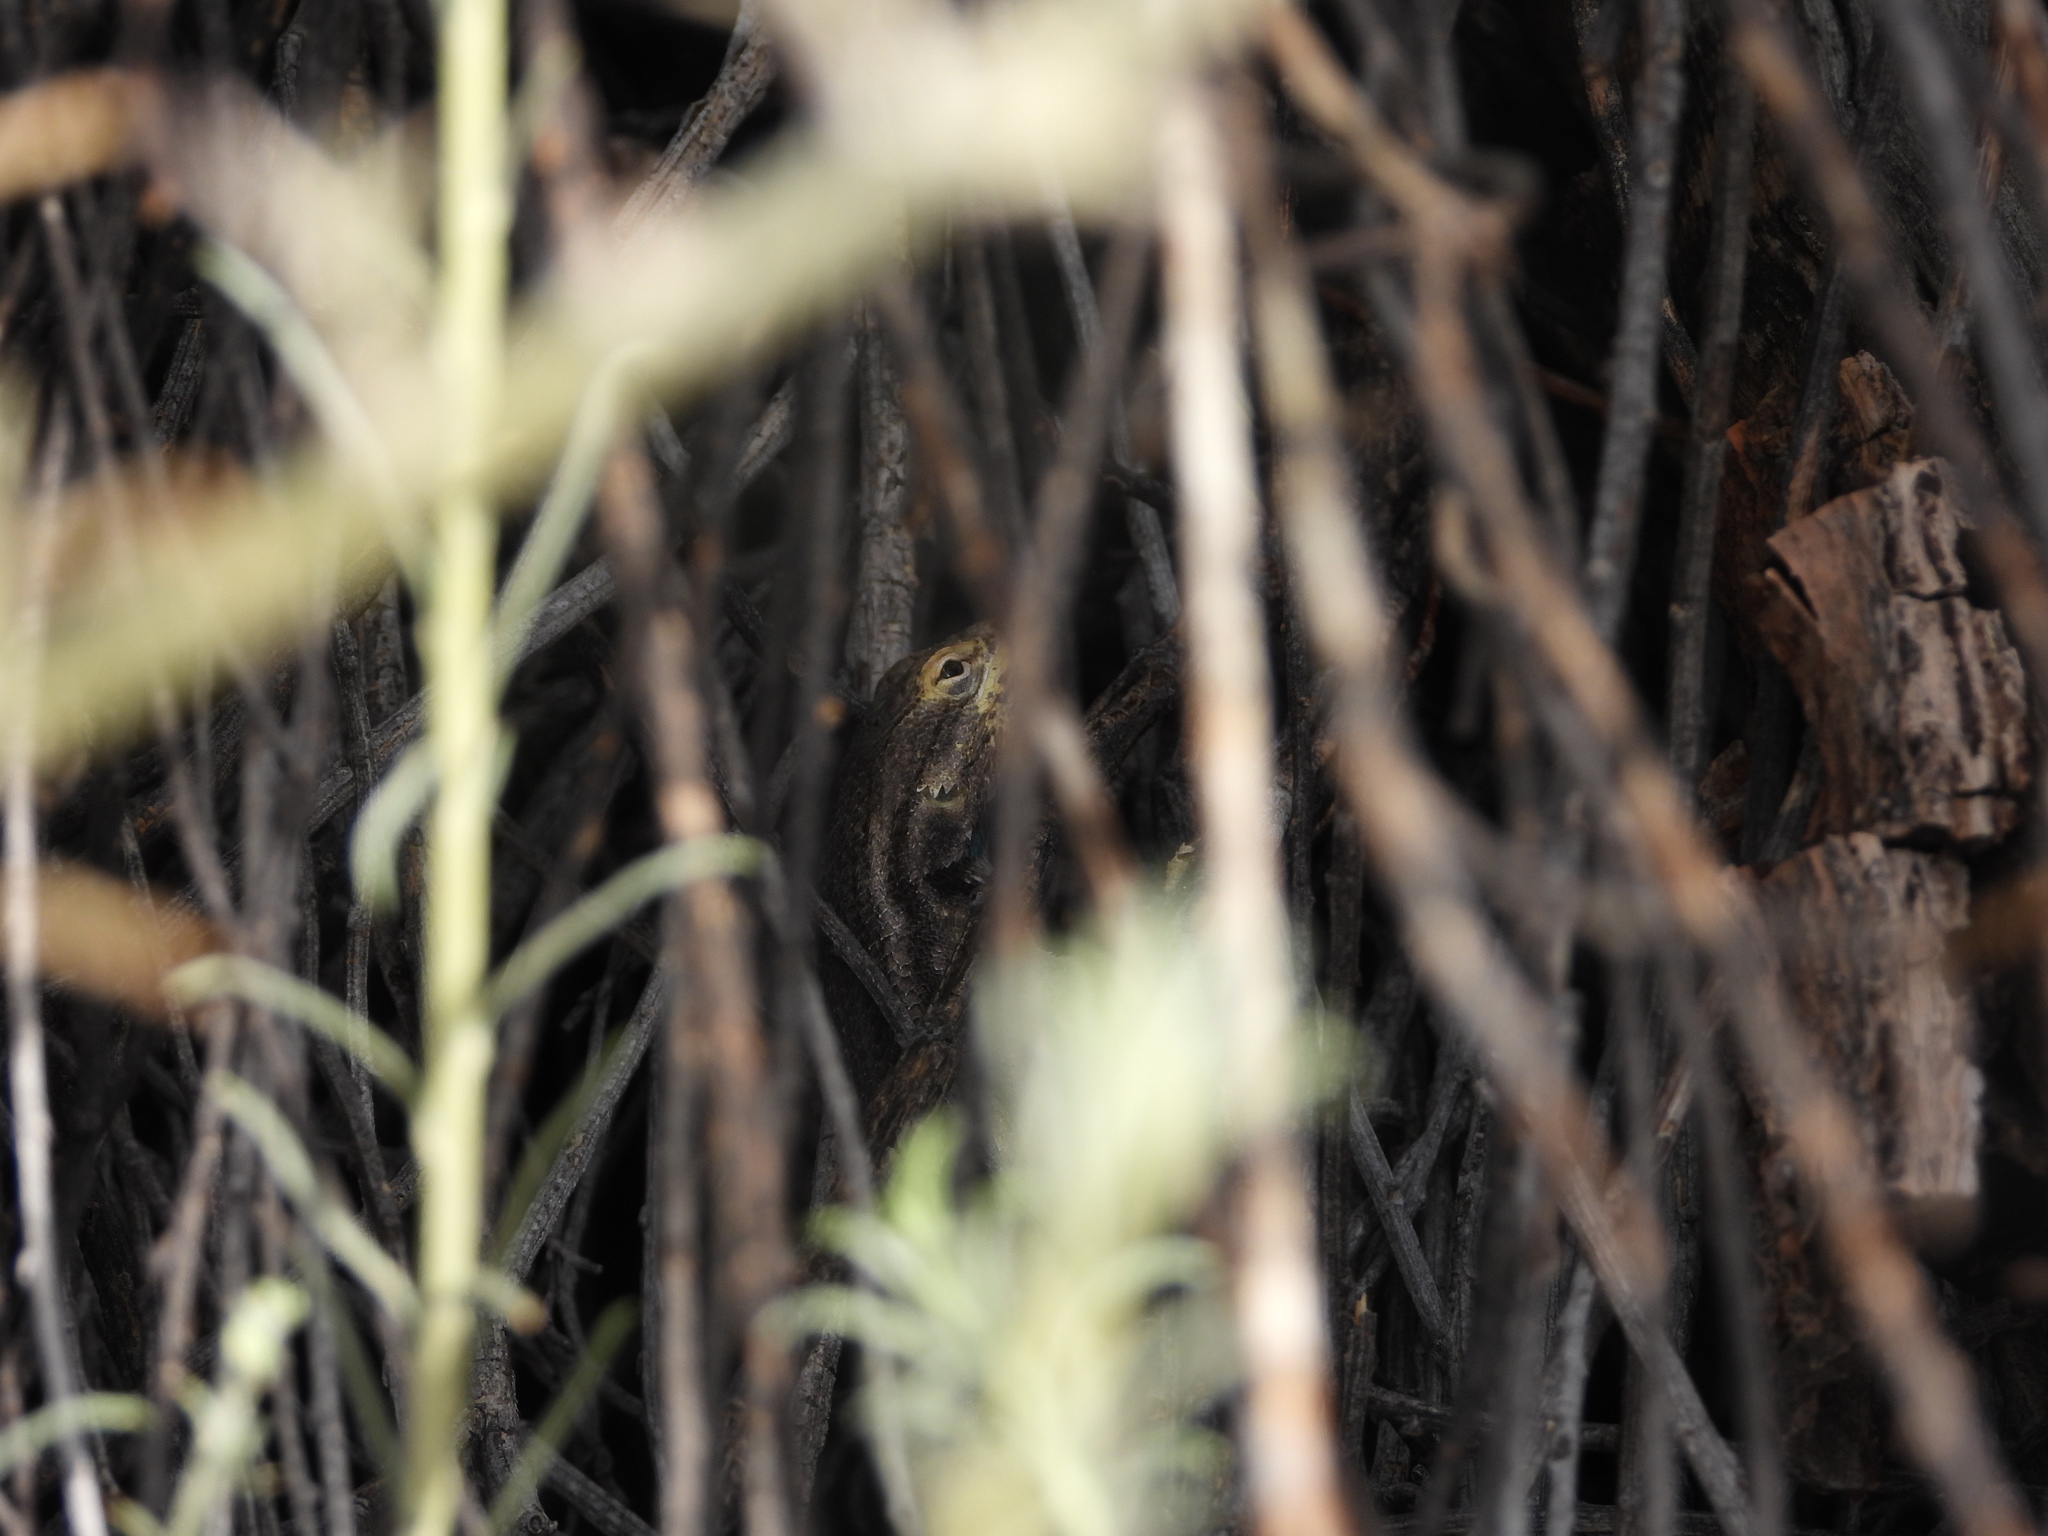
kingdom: Animalia
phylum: Chordata
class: Squamata
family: Phrynosomatidae
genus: Sceloporus
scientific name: Sceloporus cowlesi
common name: White sands prairie lizard
